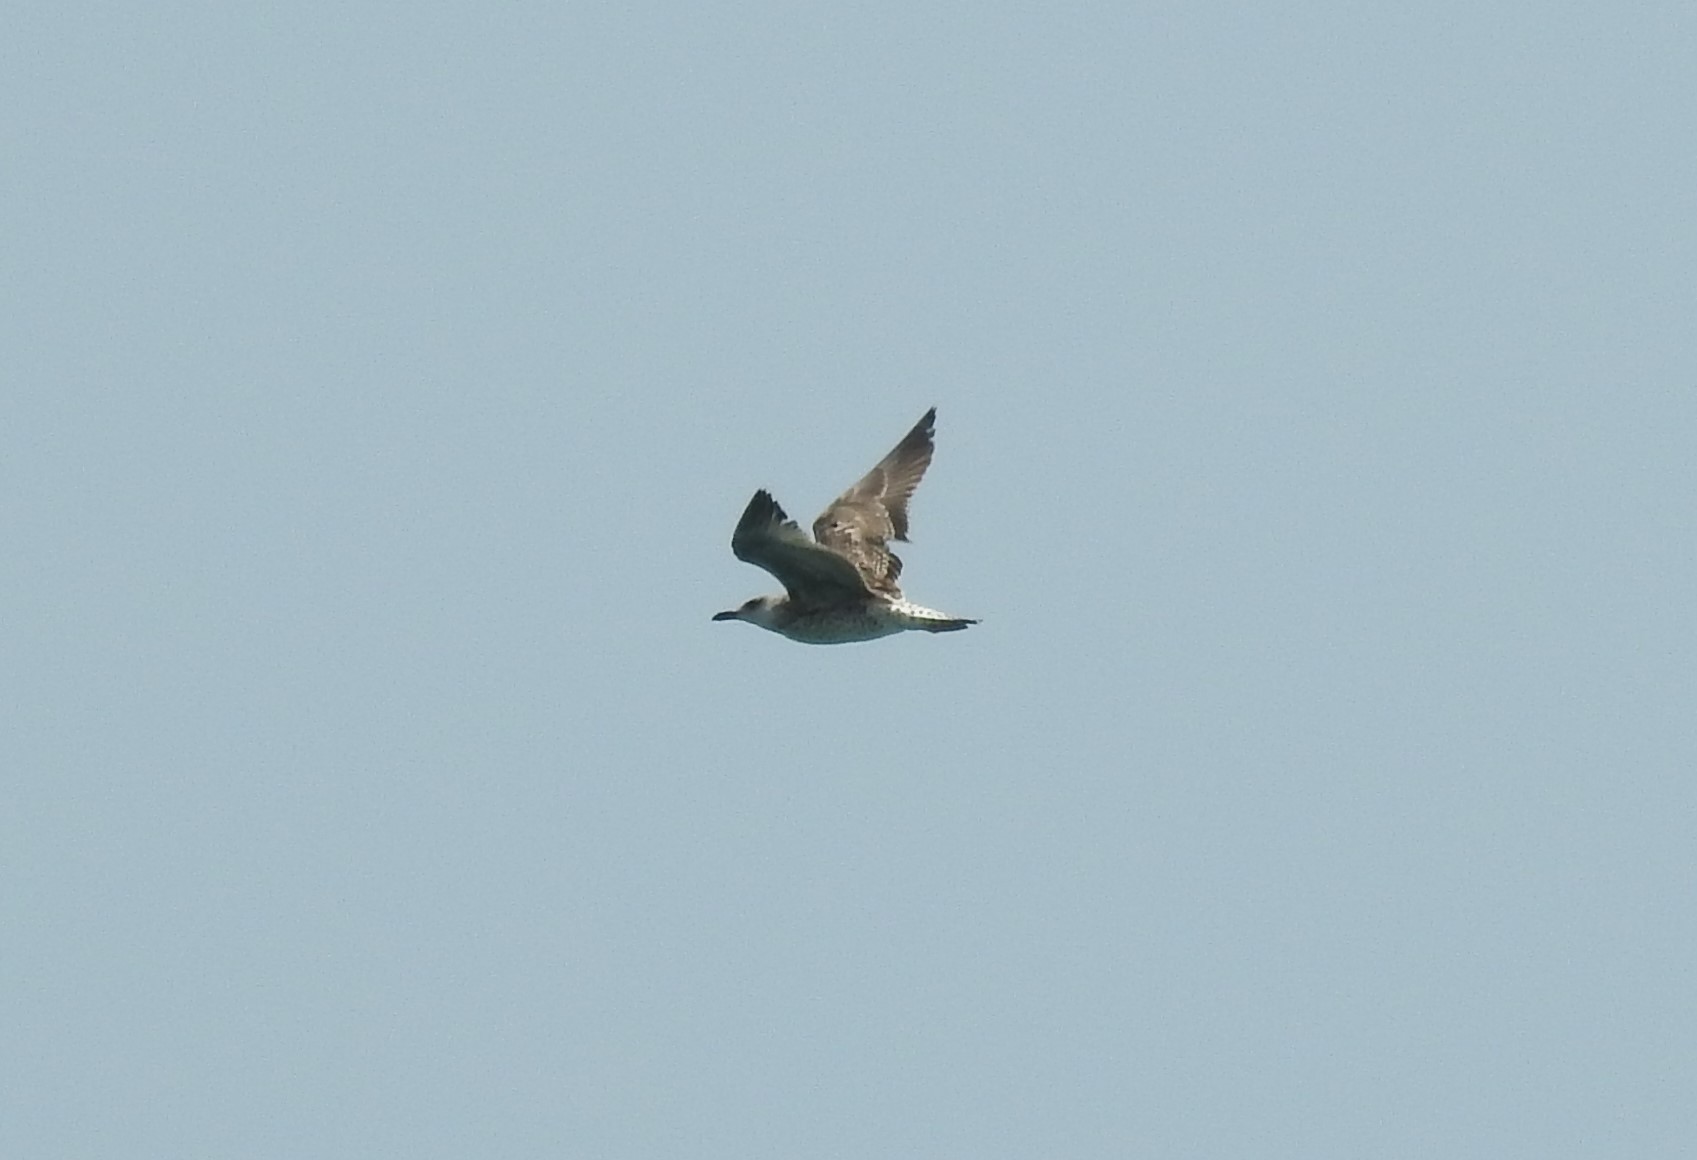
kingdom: Animalia
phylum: Chordata
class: Aves
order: Charadriiformes
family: Laridae
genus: Larus
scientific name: Larus michahellis
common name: Yellow-legged gull
